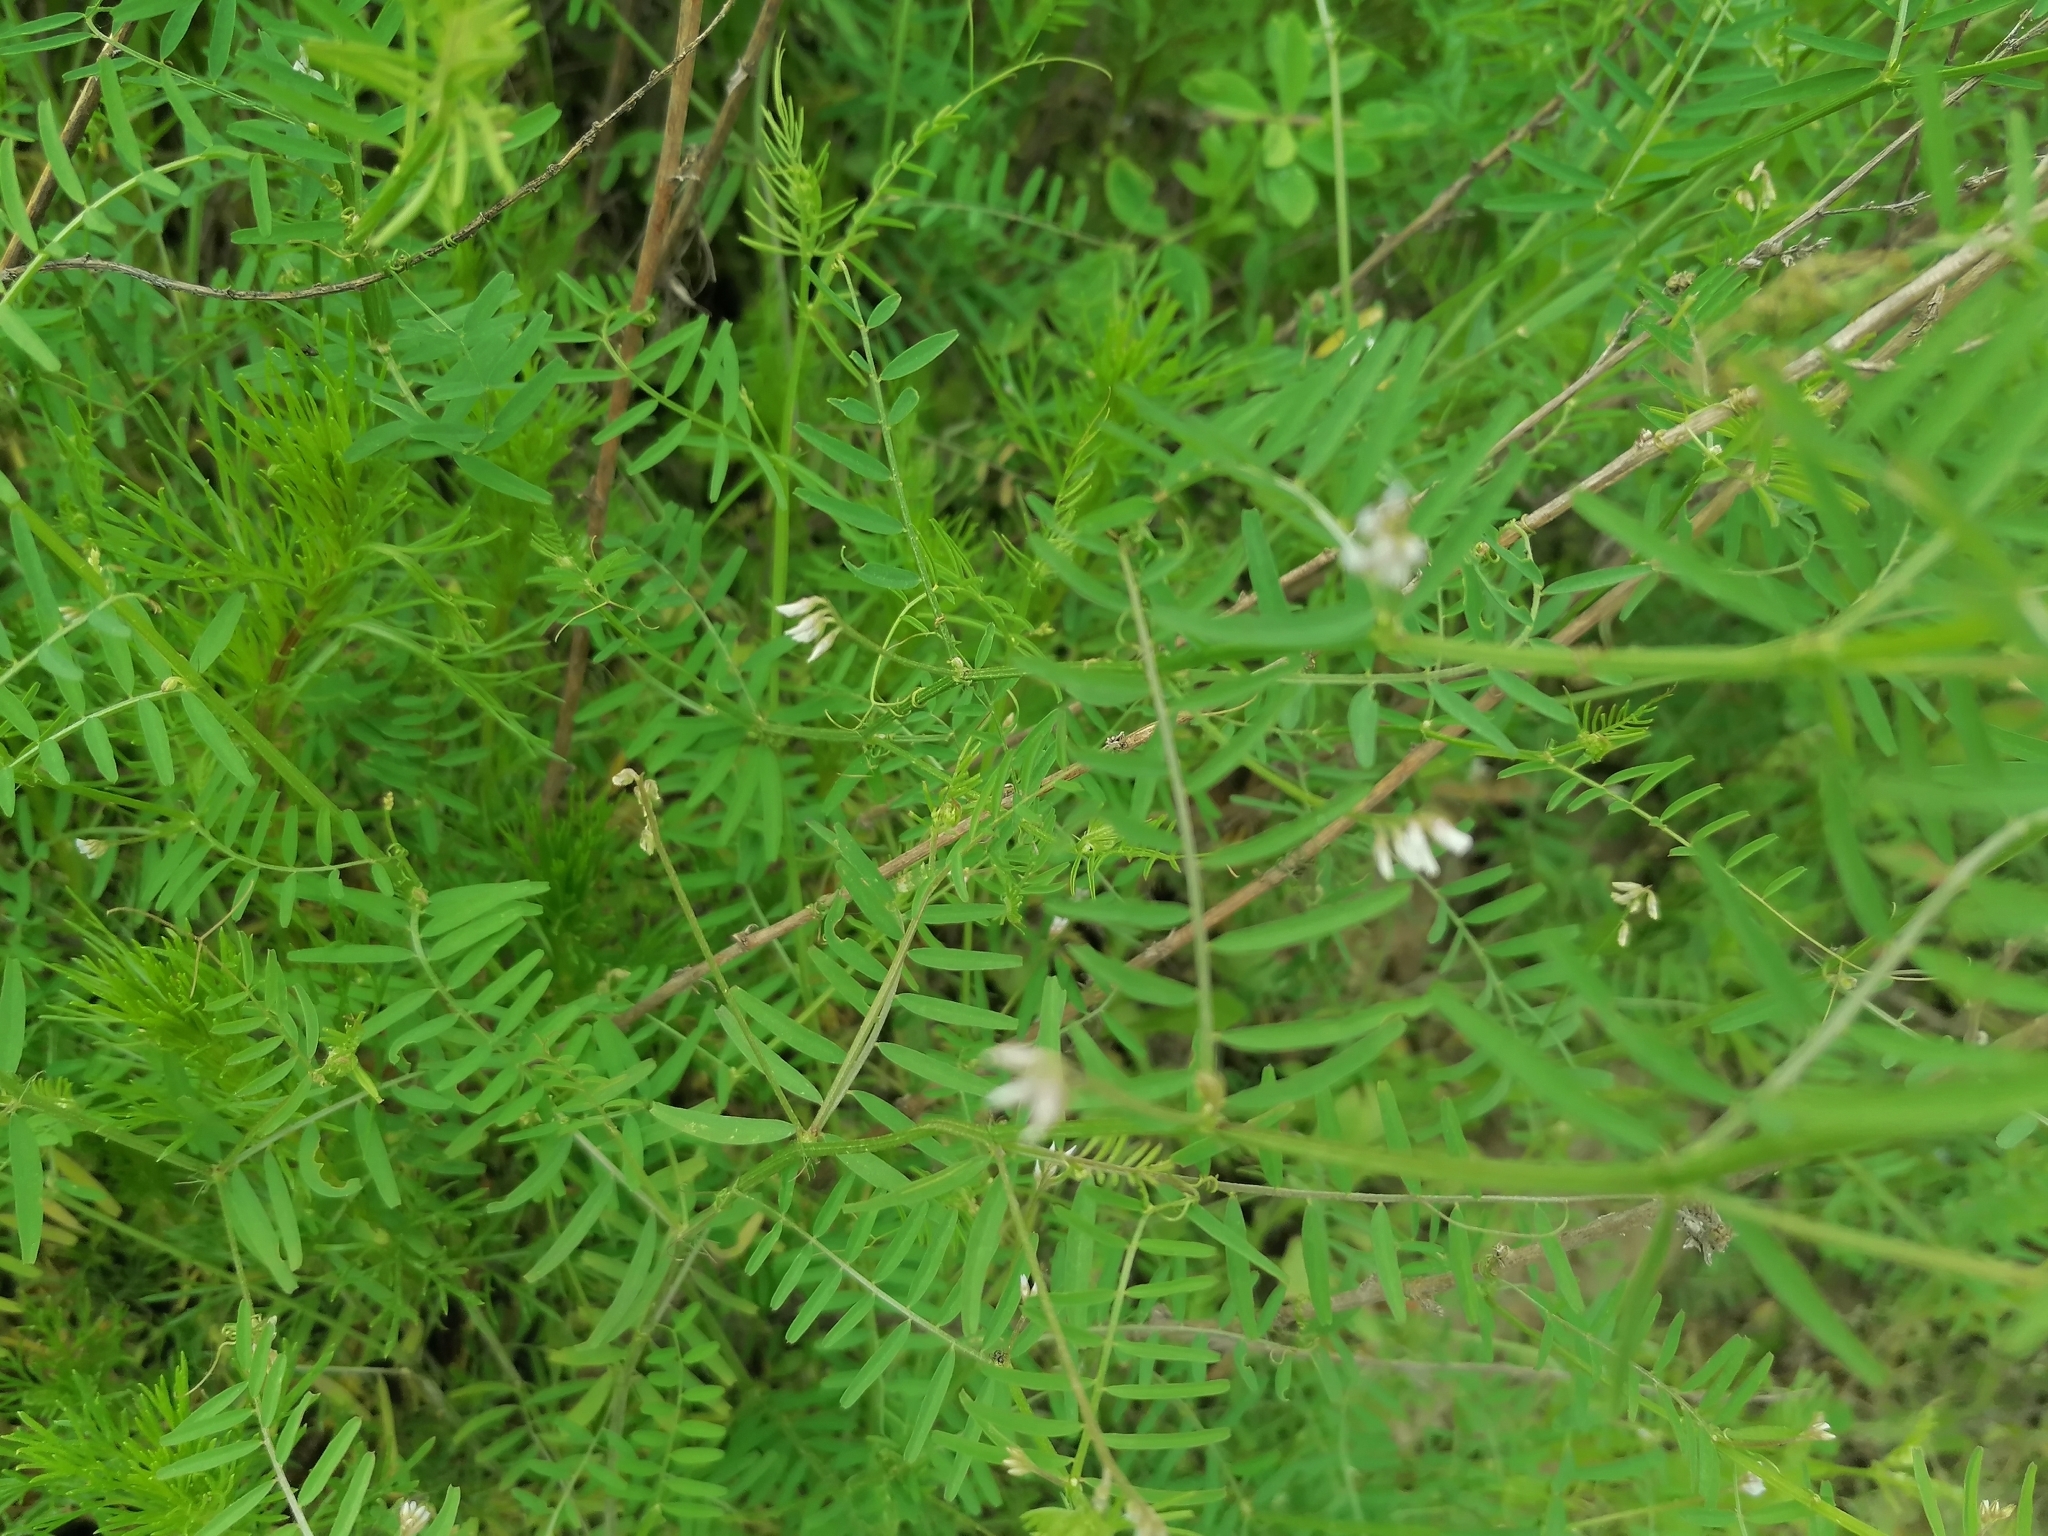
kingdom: Plantae
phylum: Tracheophyta
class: Magnoliopsida
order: Fabales
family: Fabaceae
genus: Vicia
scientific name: Vicia hirsuta
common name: Tiny vetch
